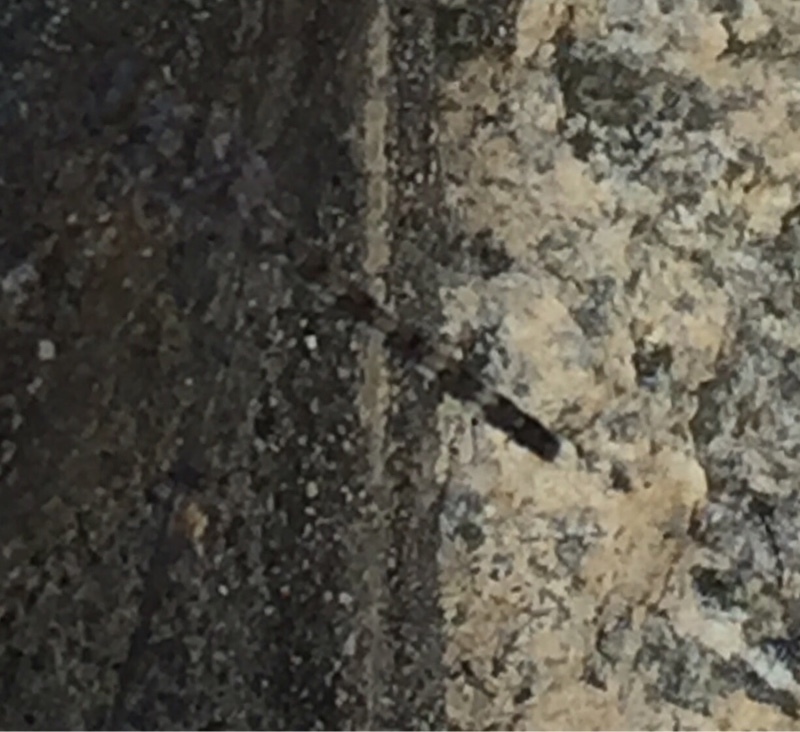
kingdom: Animalia
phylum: Arthropoda
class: Insecta
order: Odonata
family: Libellulidae
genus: Bradinopyga
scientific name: Bradinopyga geminata
